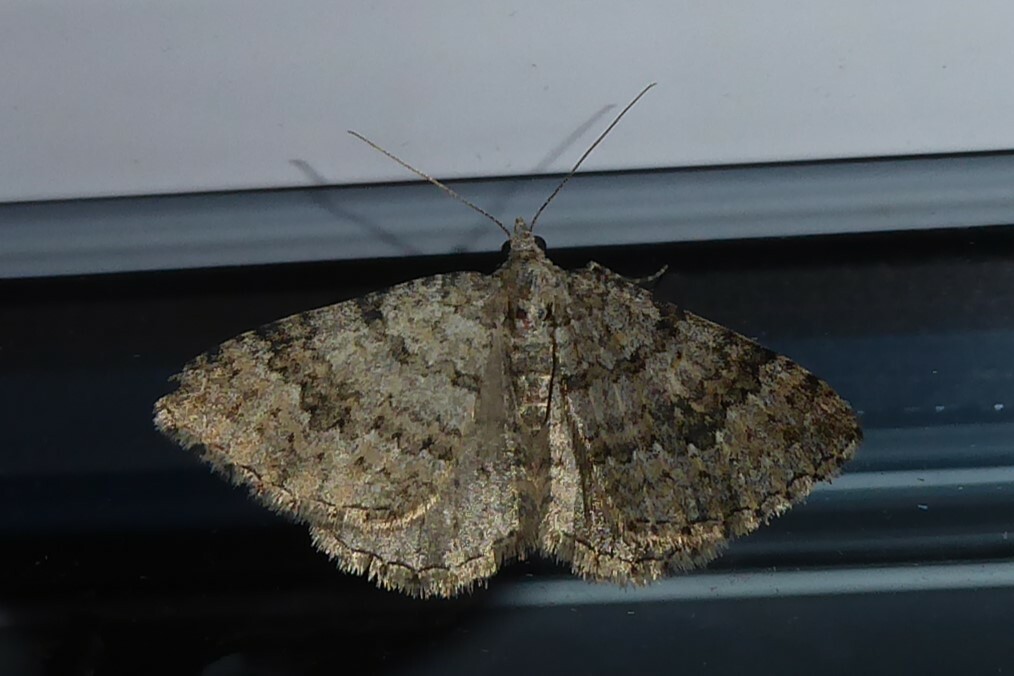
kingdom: Animalia
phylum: Arthropoda
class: Insecta
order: Lepidoptera
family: Geometridae
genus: Helastia
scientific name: Helastia corcularia
